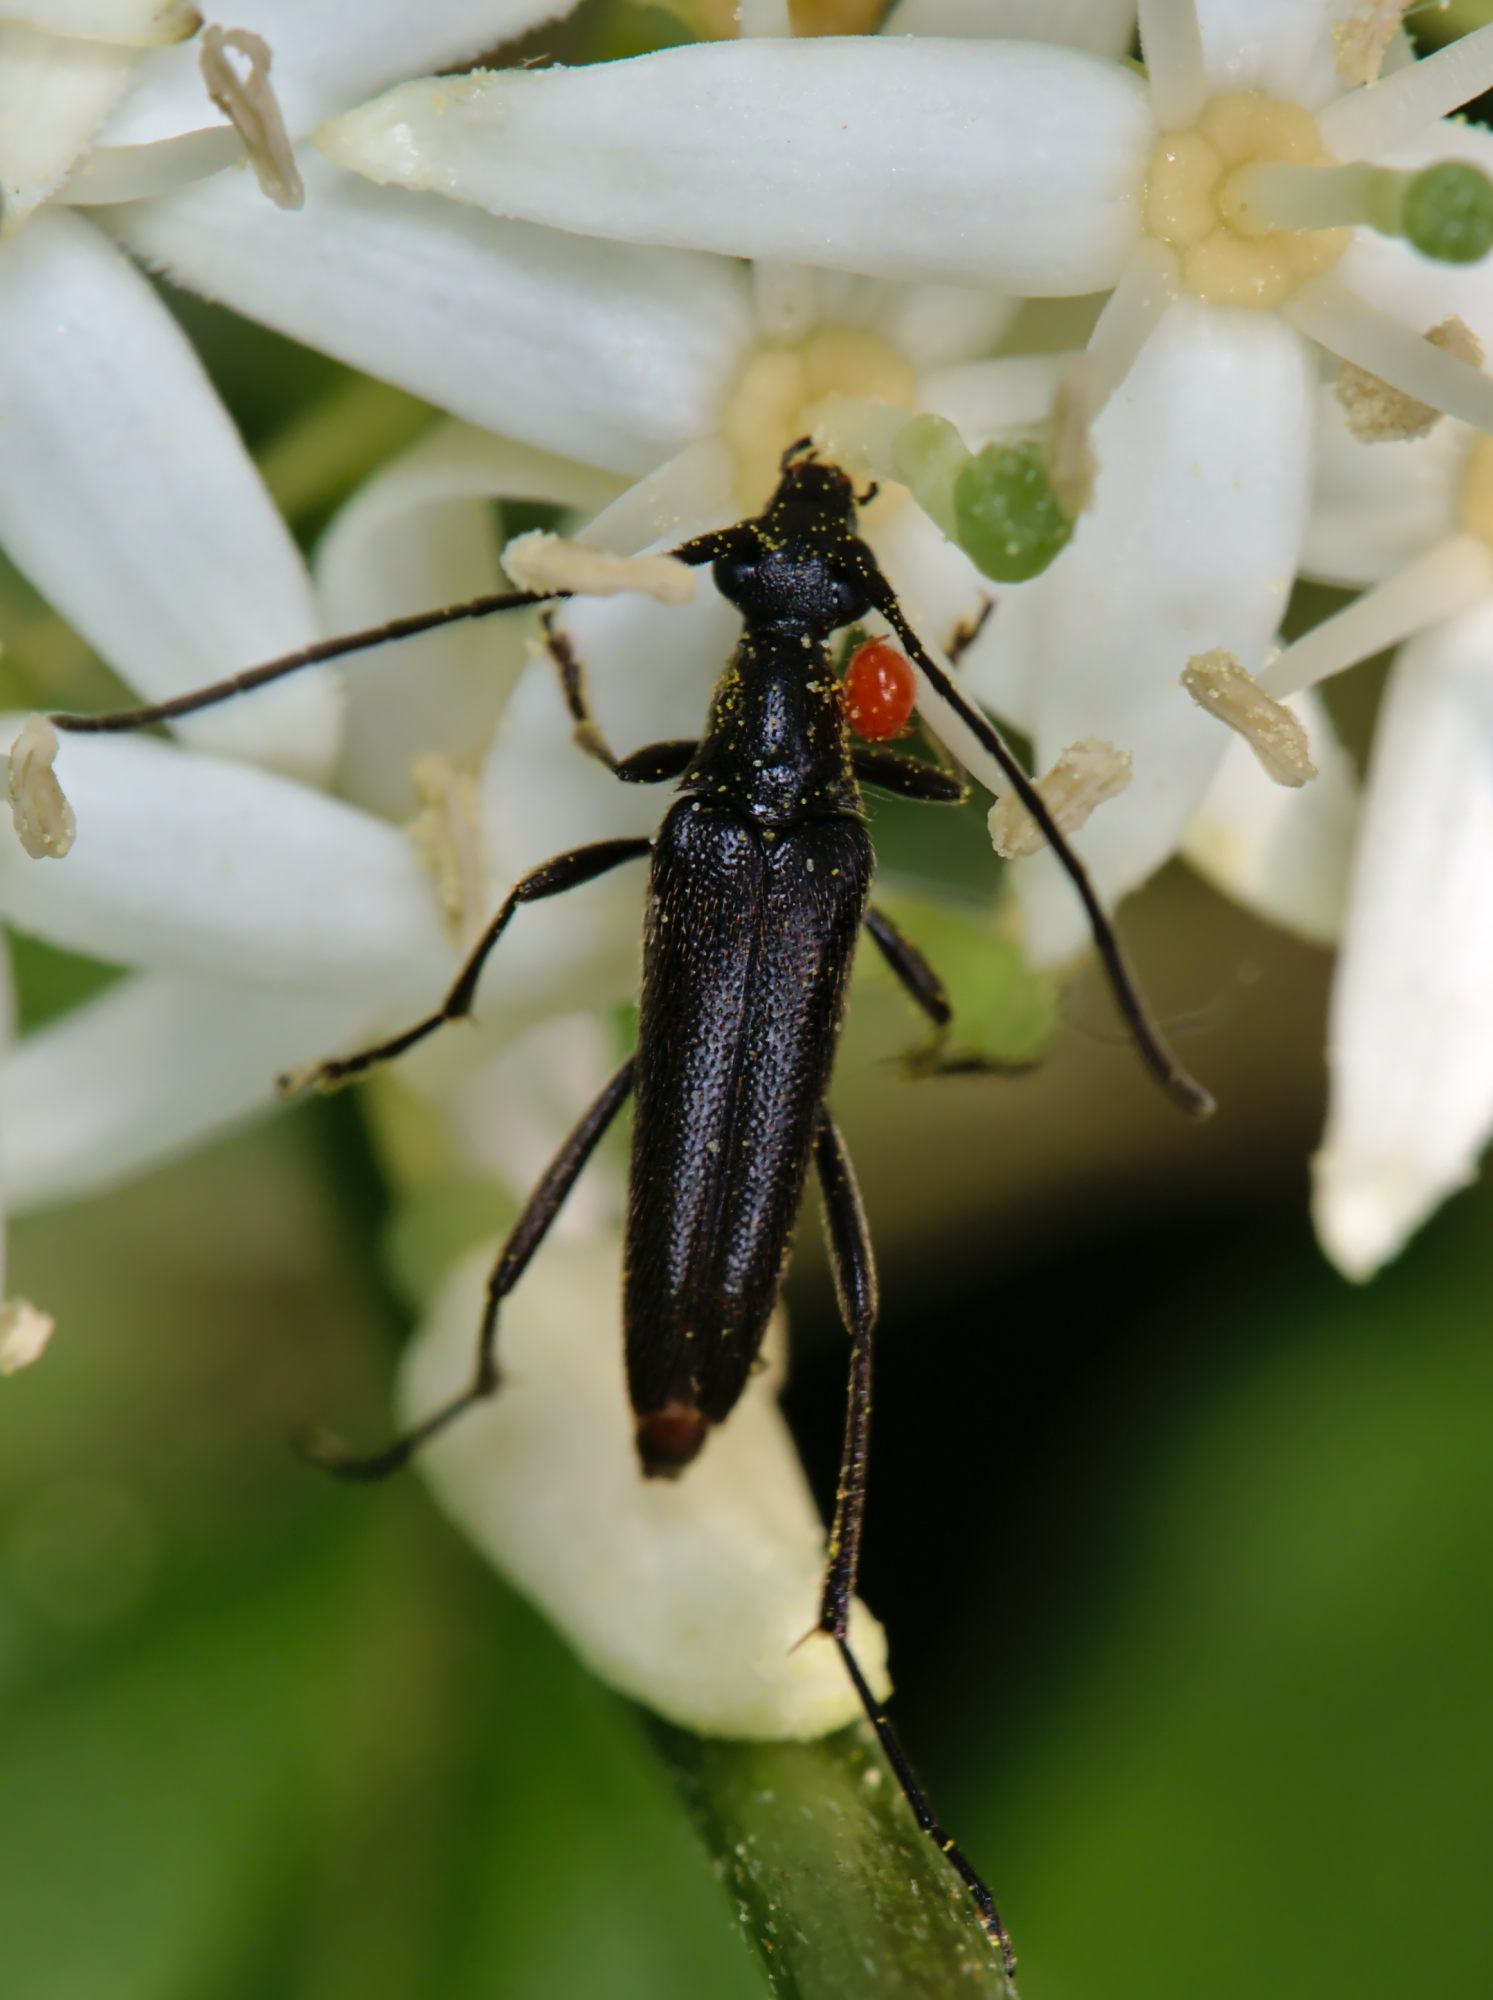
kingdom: Animalia
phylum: Arthropoda
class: Insecta
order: Coleoptera
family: Cerambycidae
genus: Stenurella
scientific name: Stenurella nigra
